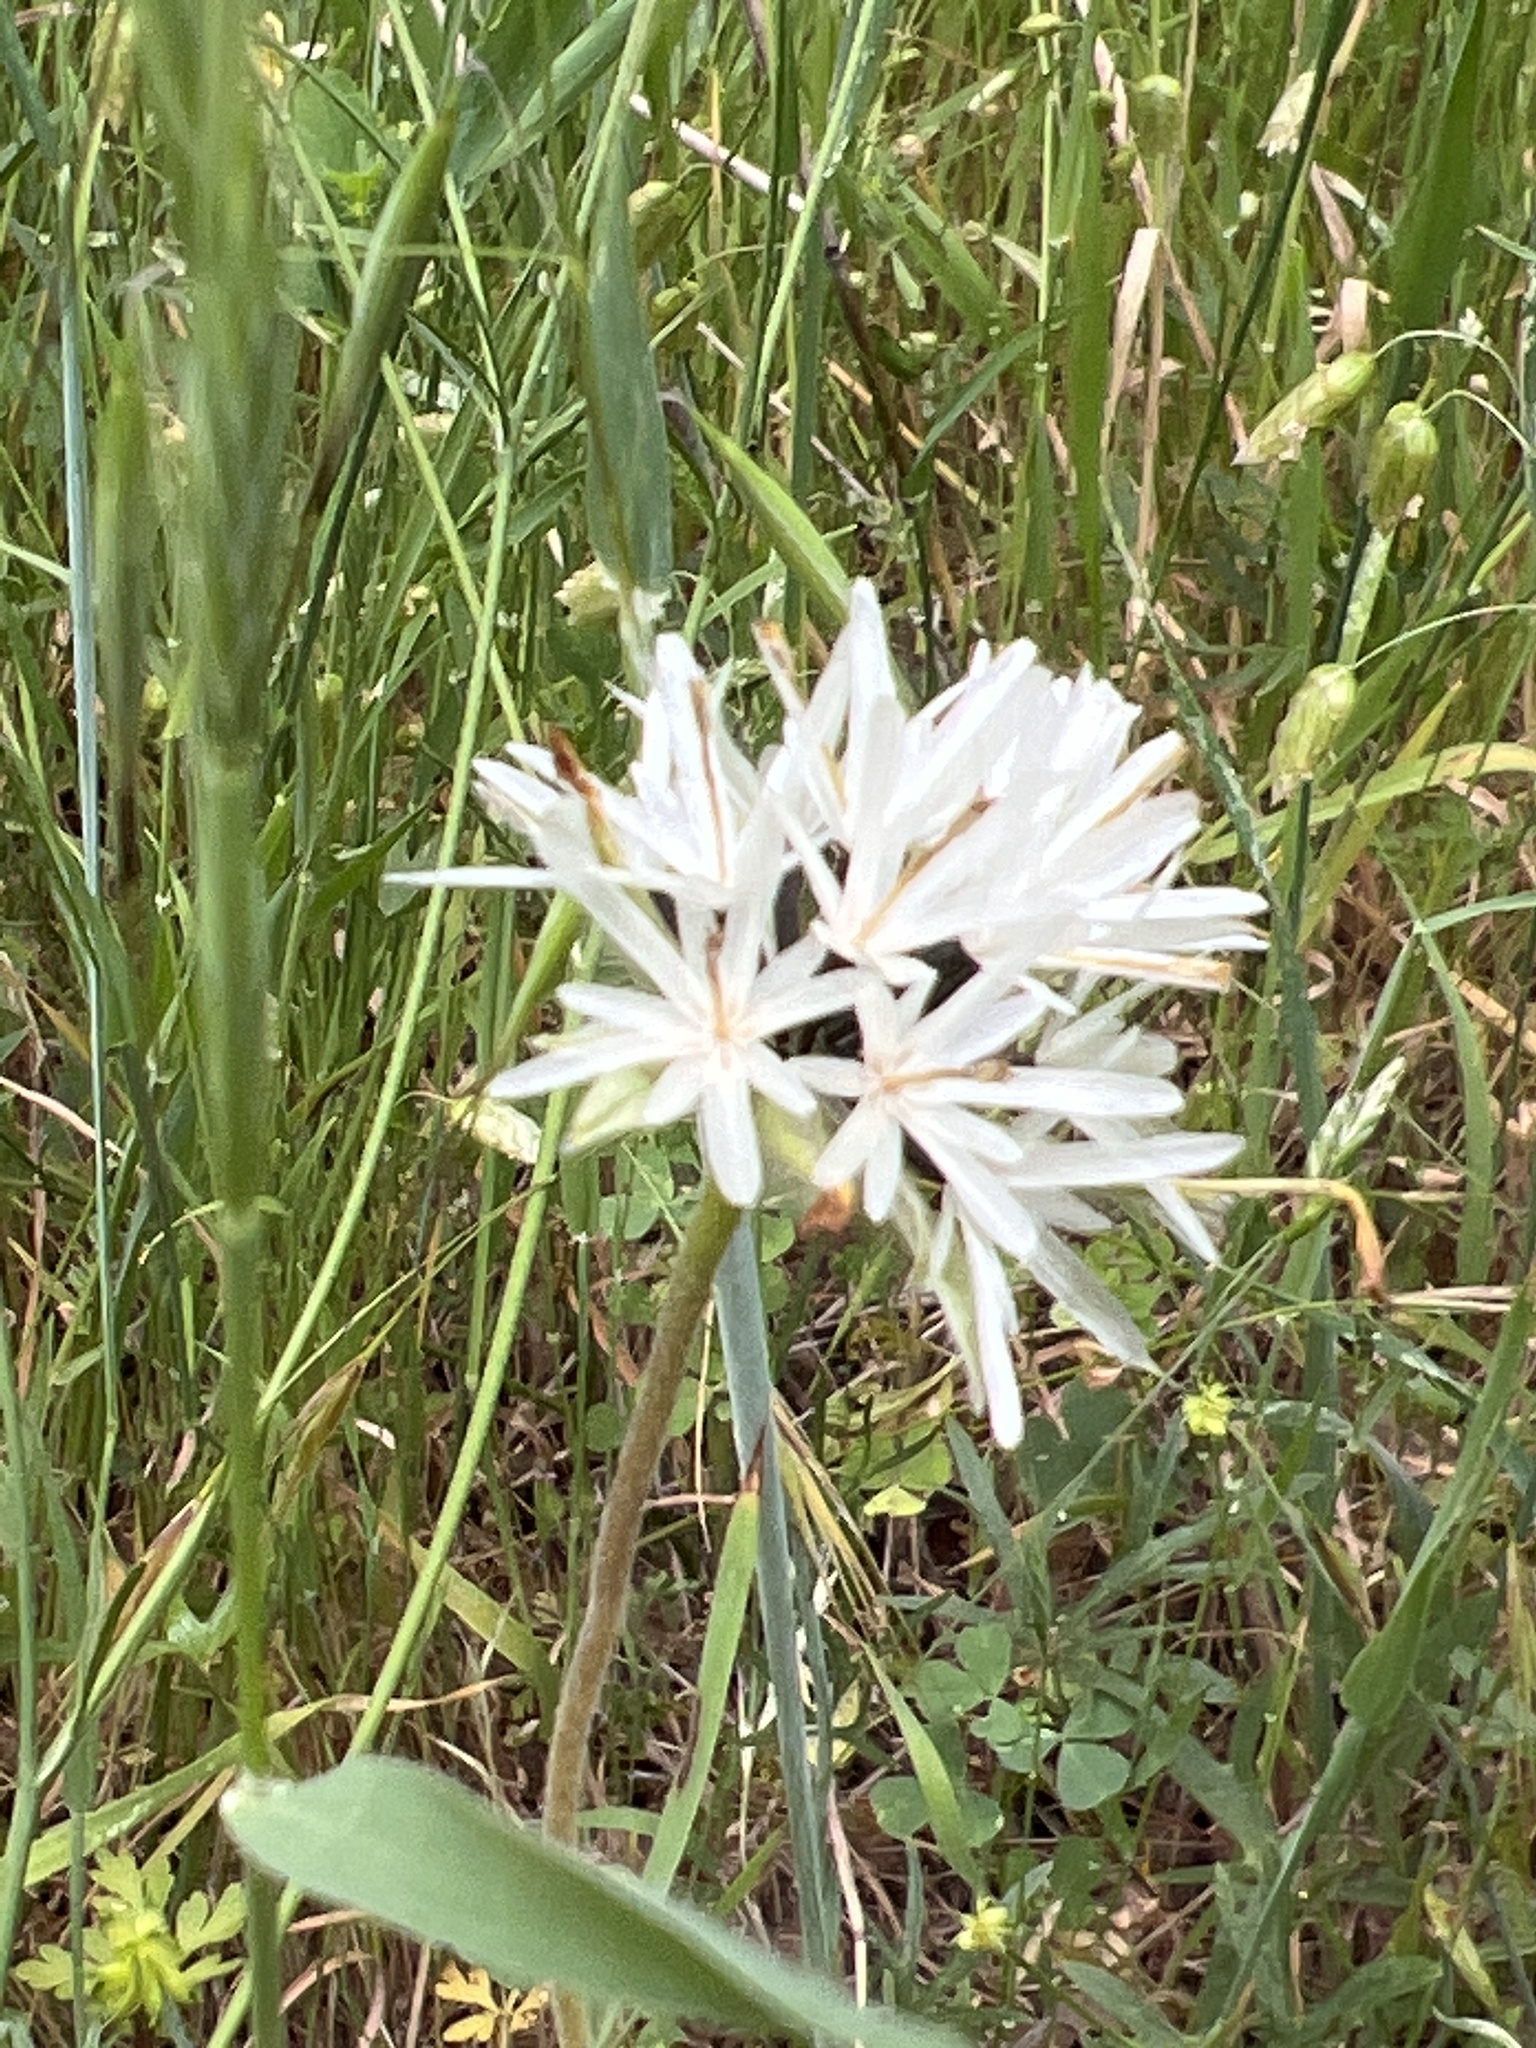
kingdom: Plantae
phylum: Tracheophyta
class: Magnoliopsida
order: Asterales
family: Asteraceae
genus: Achyrachaena
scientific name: Achyrachaena mollis
